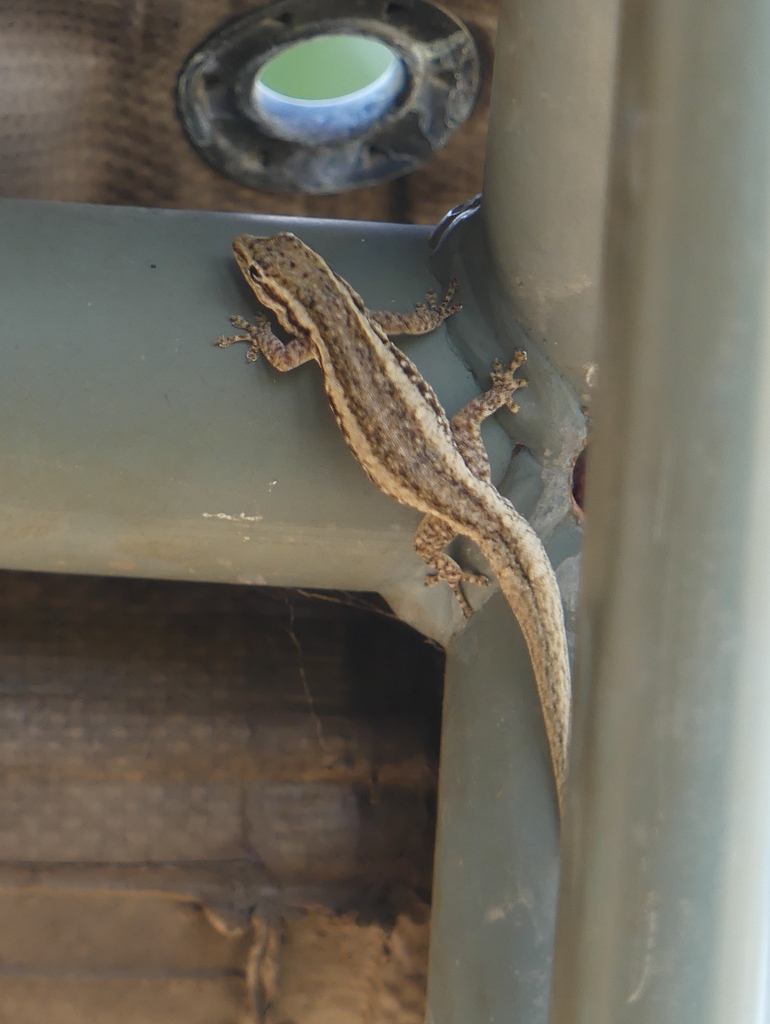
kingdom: Animalia
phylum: Chordata
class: Squamata
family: Gekkonidae
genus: Lygodactylus
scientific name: Lygodactylus capensis
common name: Cape dwarf gecko
